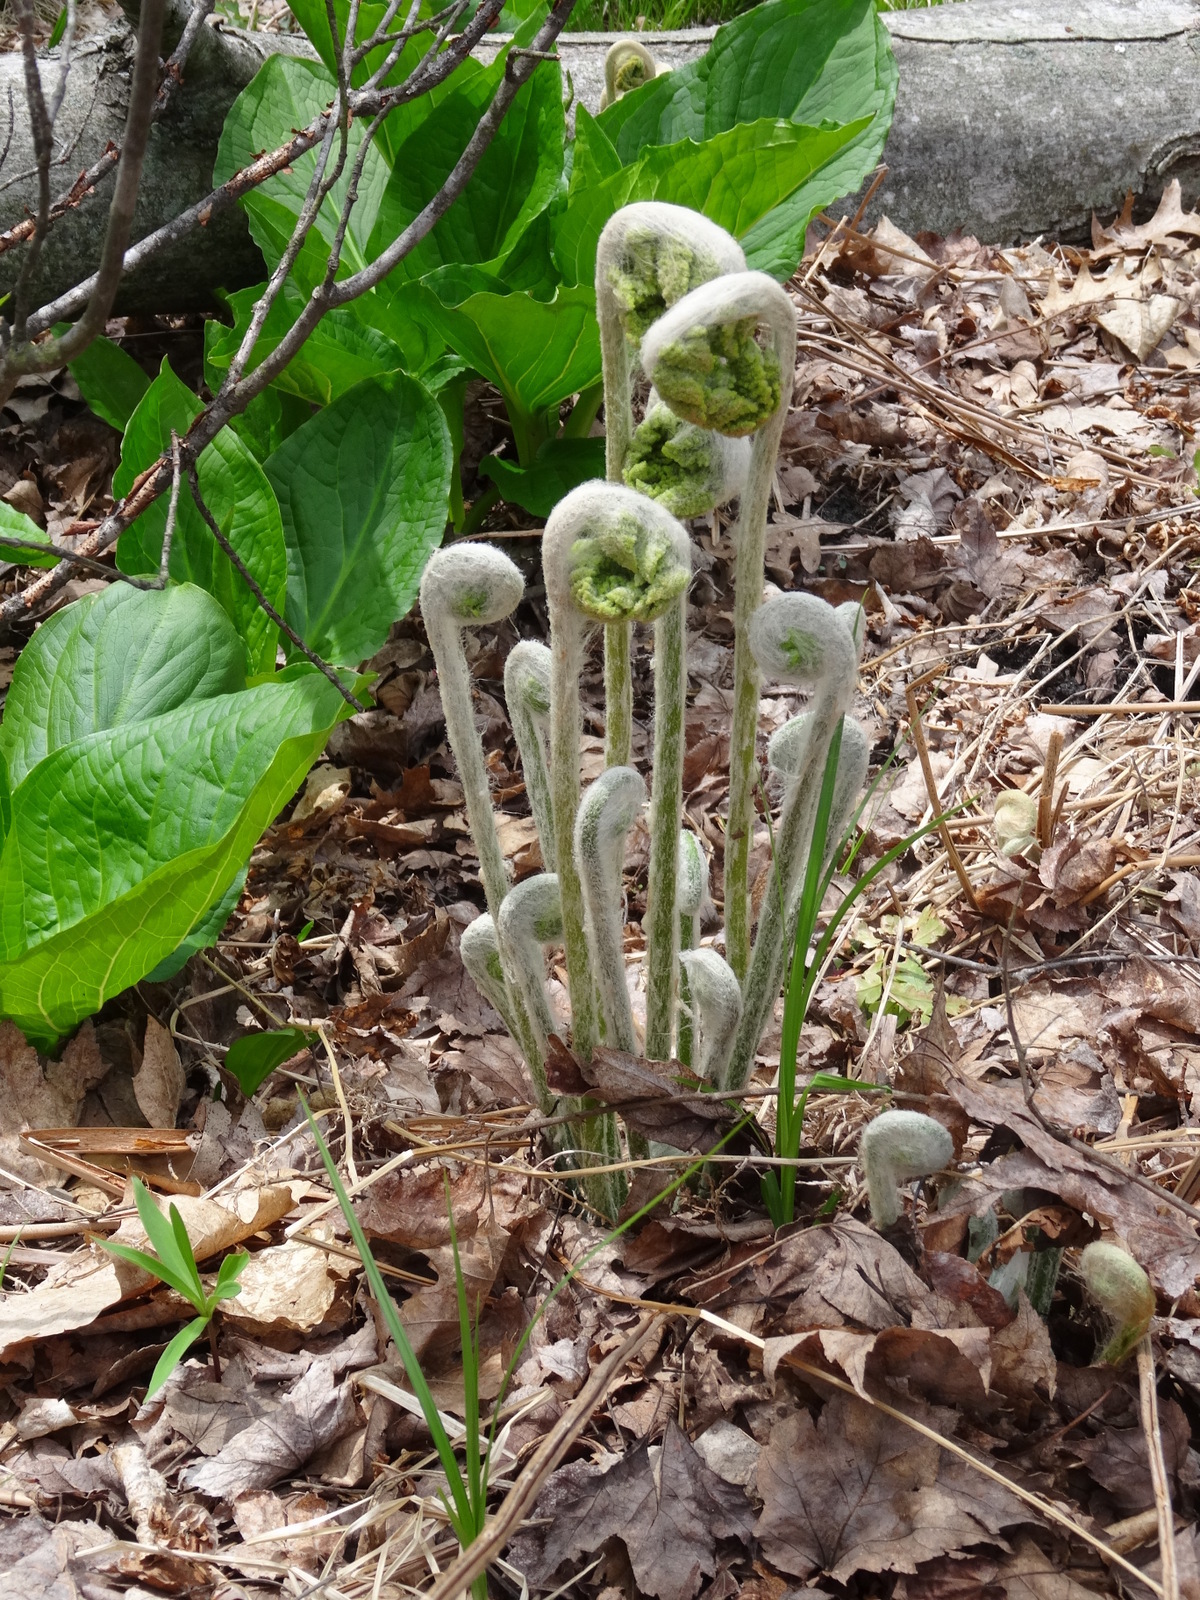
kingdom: Plantae
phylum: Tracheophyta
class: Polypodiopsida
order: Osmundales
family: Osmundaceae
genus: Osmundastrum
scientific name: Osmundastrum cinnamomeum
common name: Cinnamon fern
